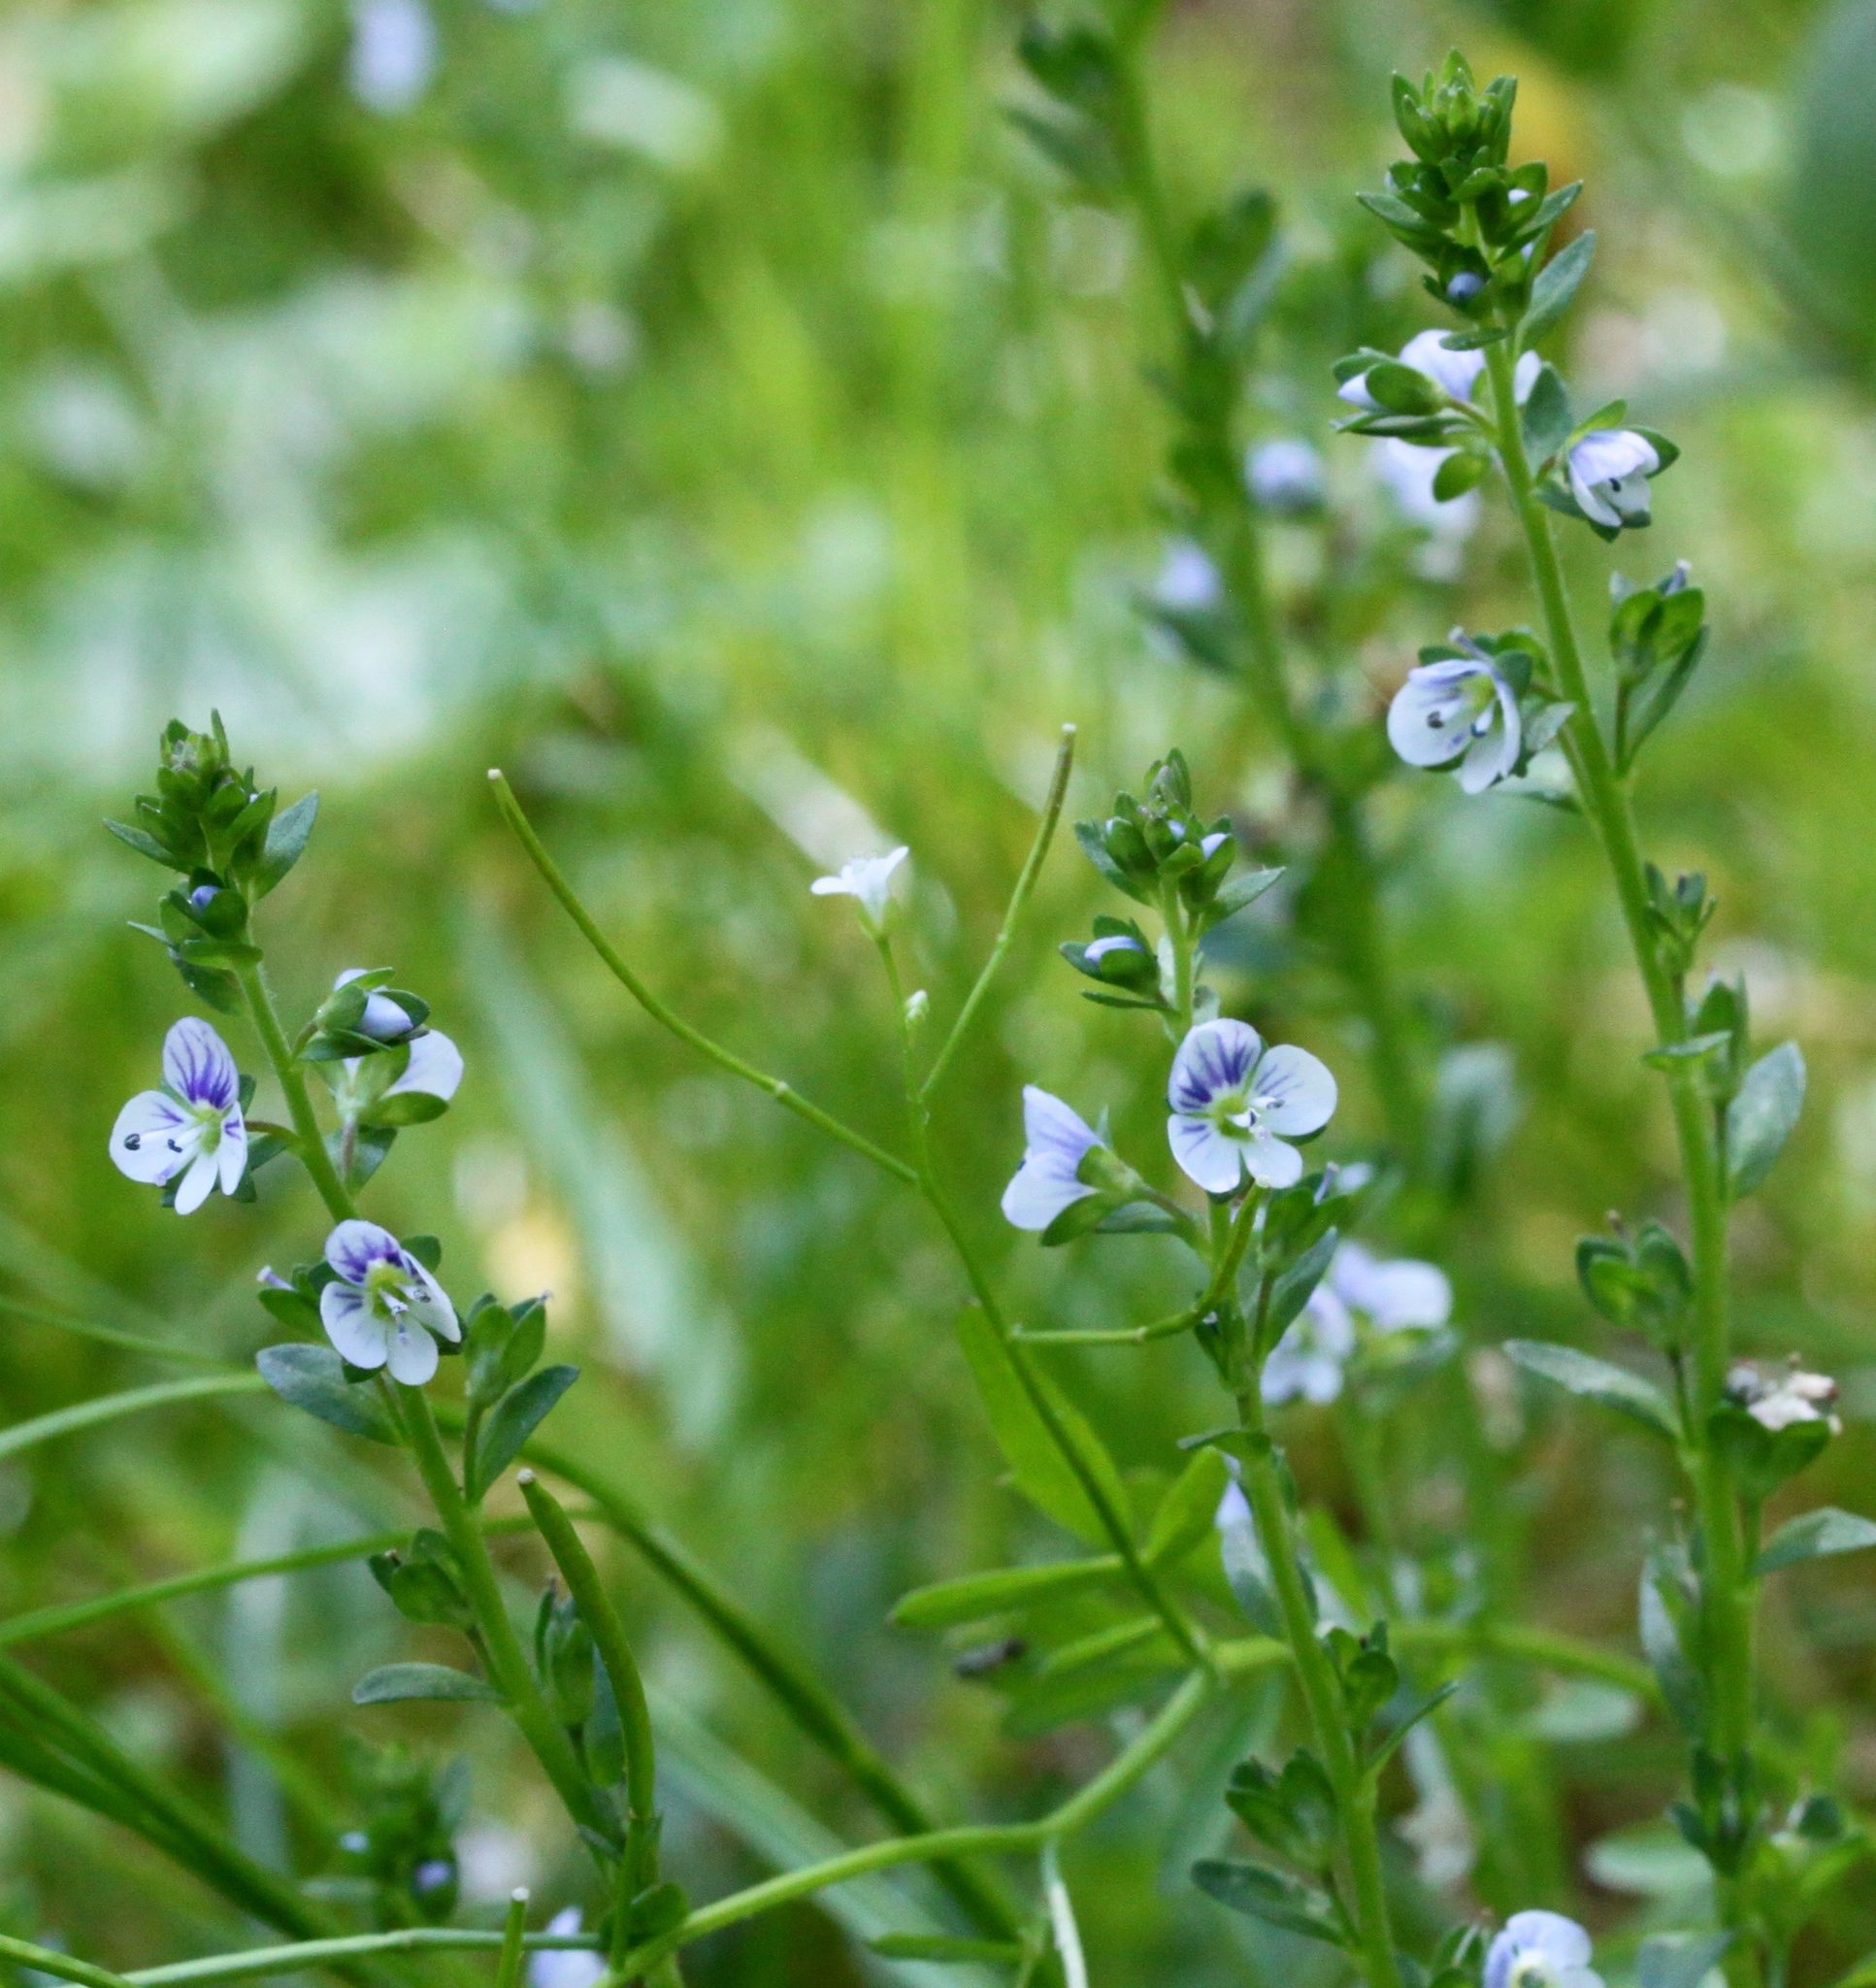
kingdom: Plantae
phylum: Tracheophyta
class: Magnoliopsida
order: Lamiales
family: Plantaginaceae
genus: Veronica
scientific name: Veronica serpyllifolia
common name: Thyme-leaved speedwell
